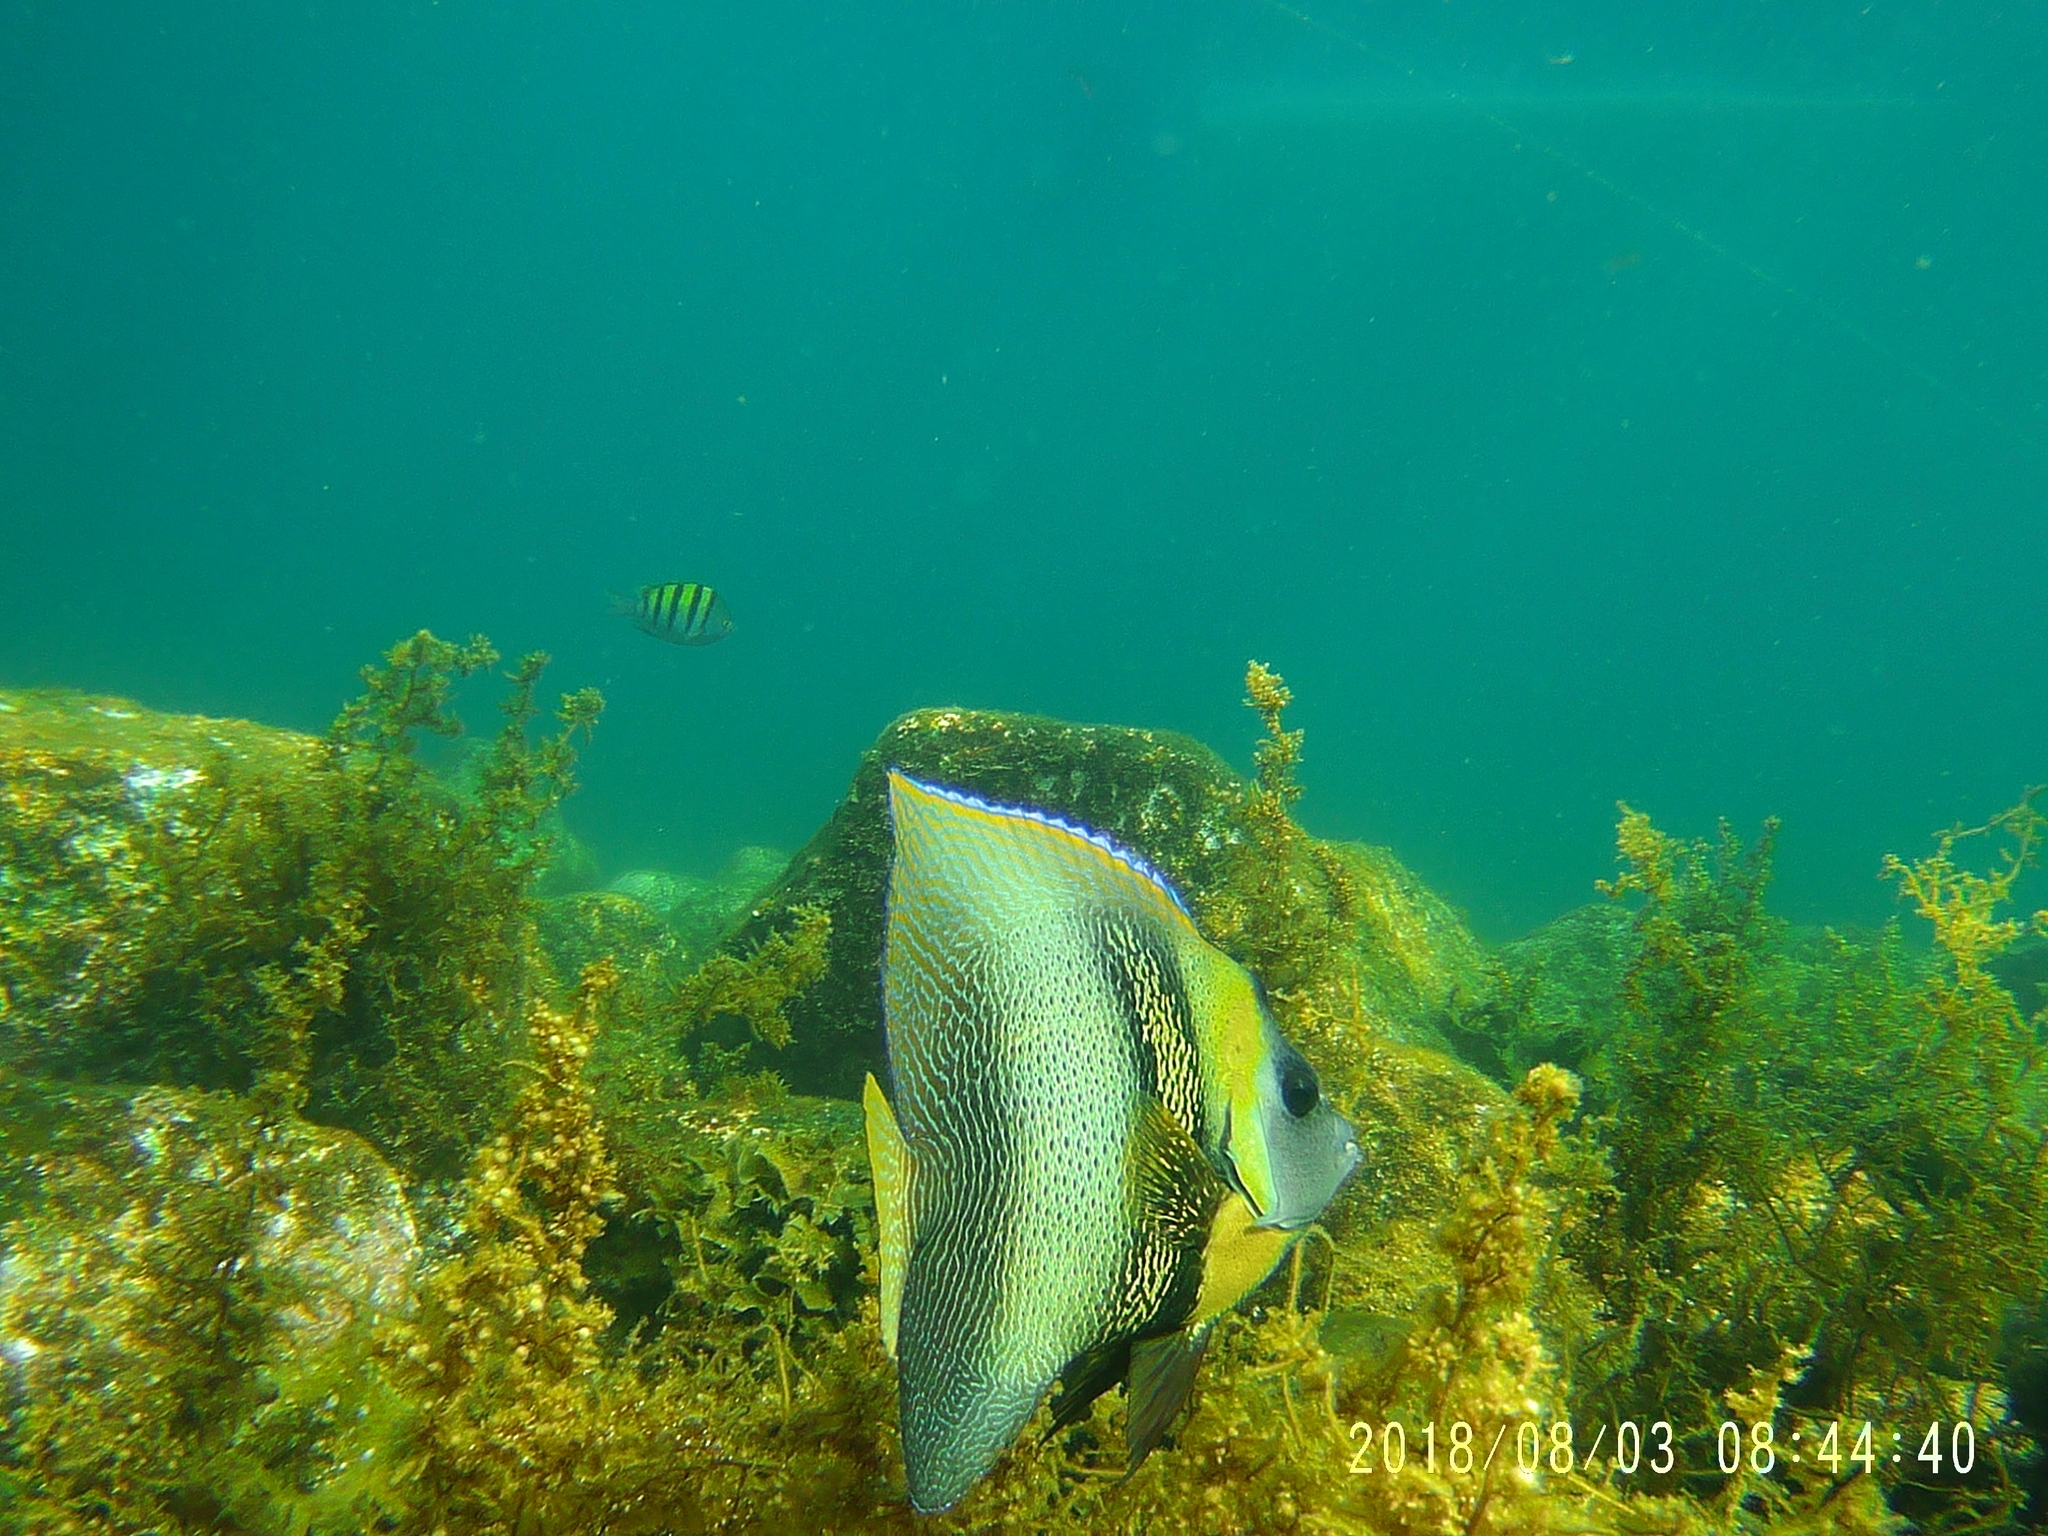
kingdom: Animalia
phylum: Chordata
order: Perciformes
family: Pomacanthidae
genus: Pomacanthus
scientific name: Pomacanthus zonipectus
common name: Cortez angelfish
